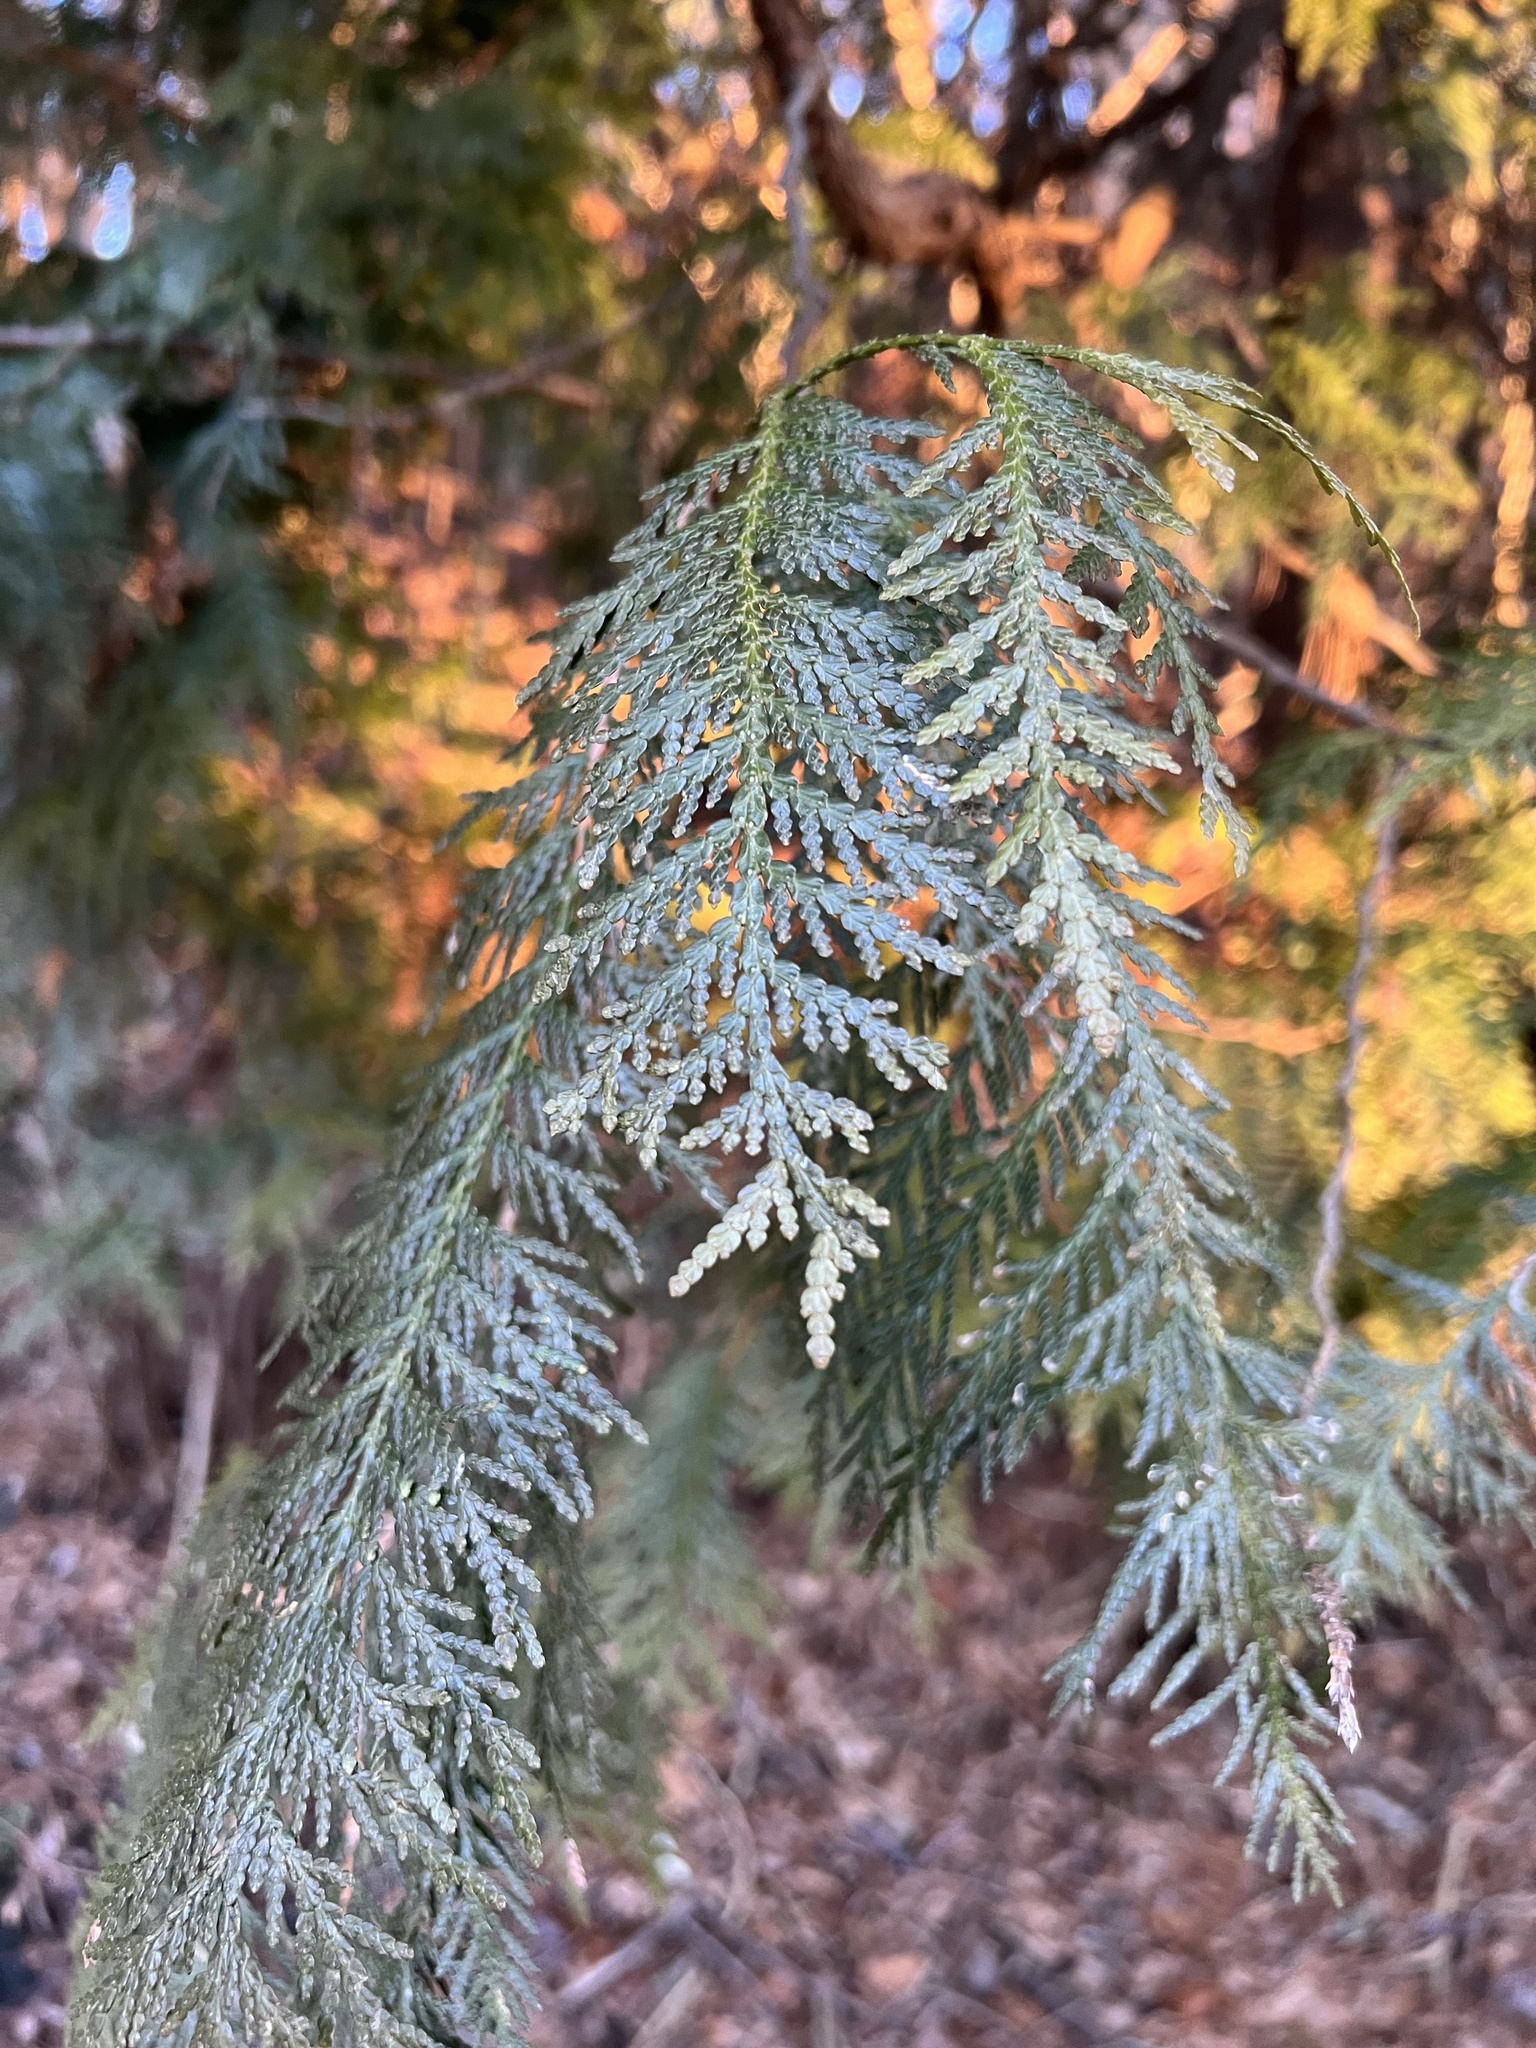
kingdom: Plantae
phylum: Tracheophyta
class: Pinopsida
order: Pinales
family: Cupressaceae
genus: Thuja
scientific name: Thuja occidentalis
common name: Northern white-cedar
